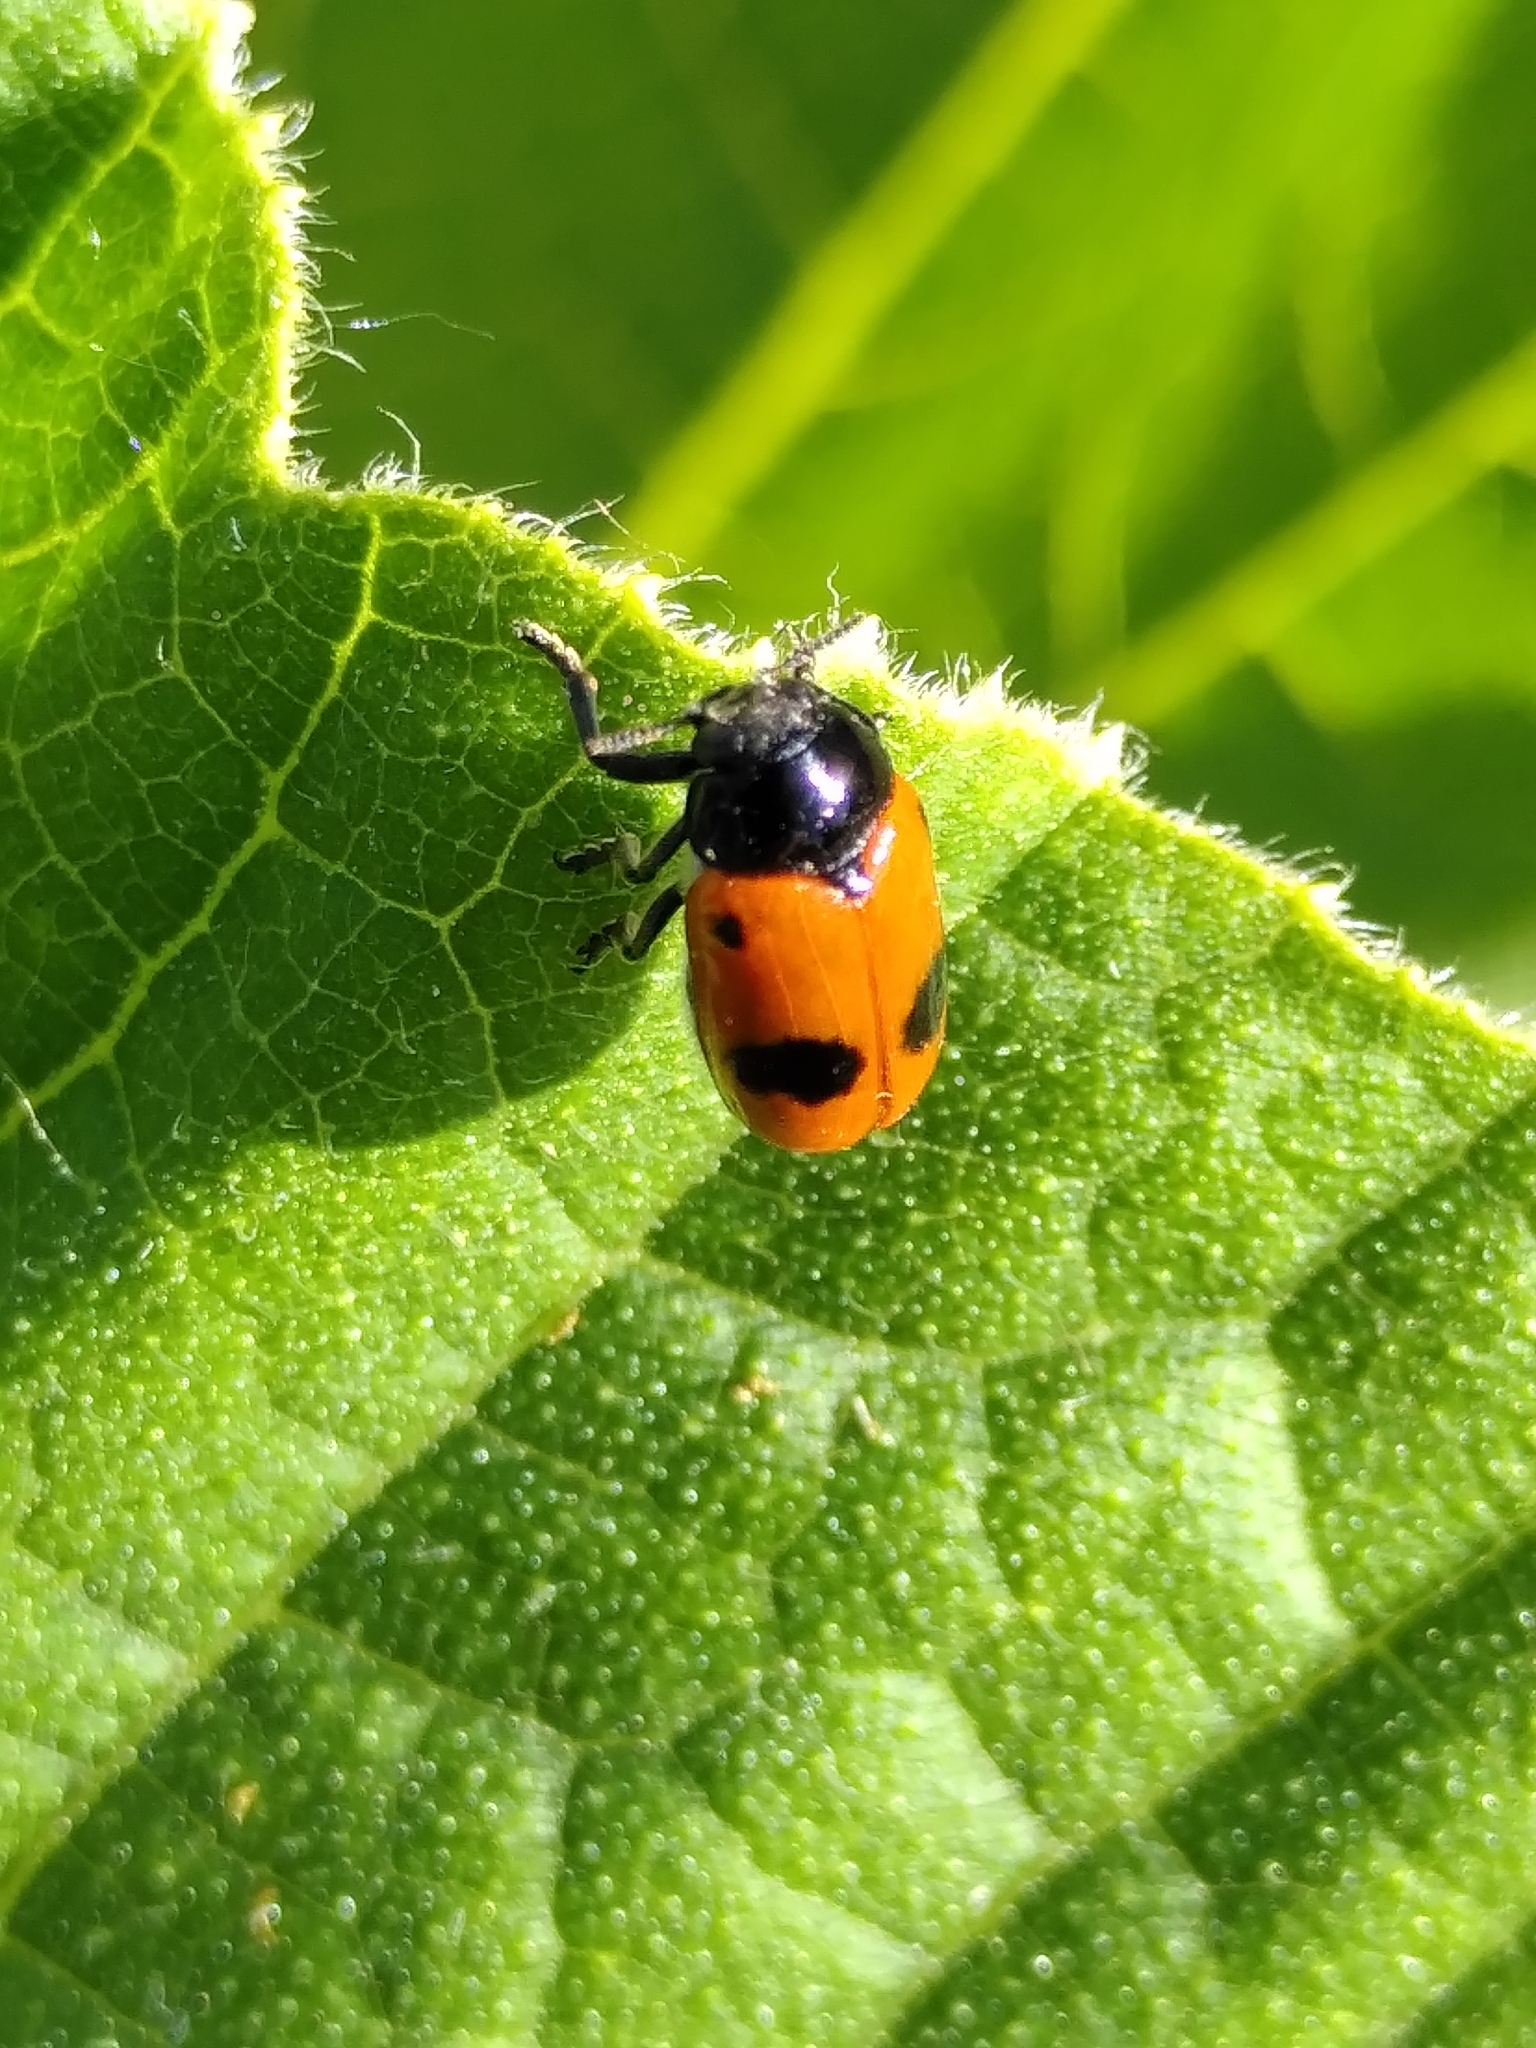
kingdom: Animalia
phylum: Arthropoda
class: Insecta
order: Coleoptera
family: Chrysomelidae
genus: Clytra
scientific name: Clytra laeviuscula
